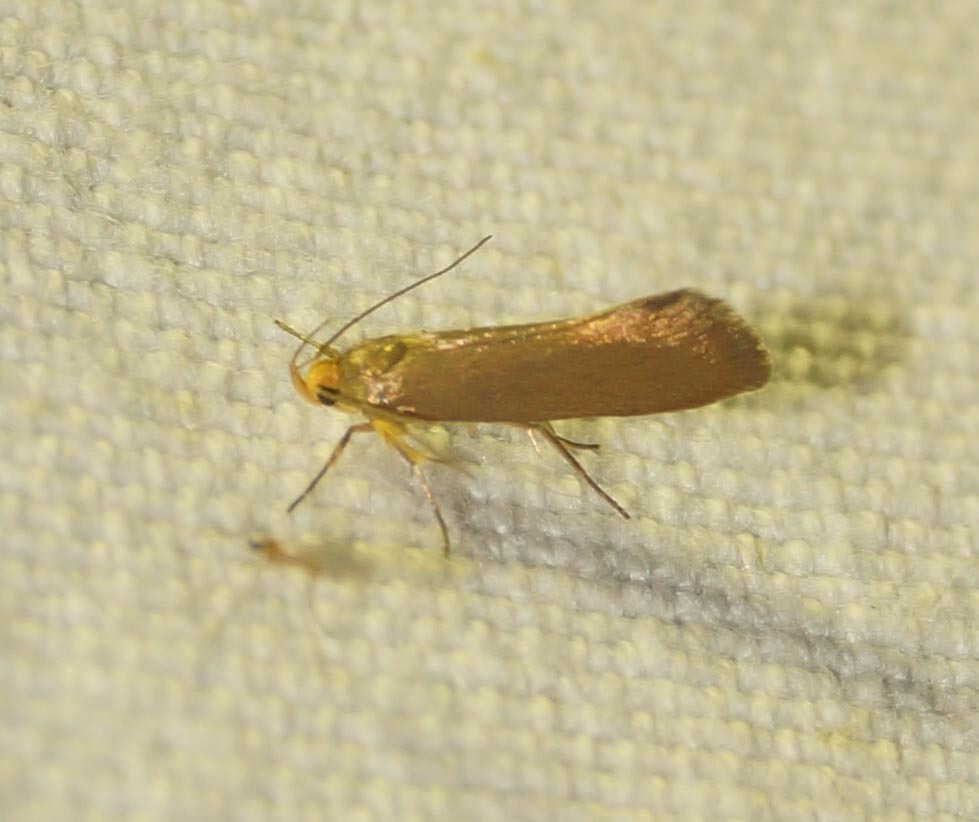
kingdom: Animalia
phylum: Arthropoda
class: Insecta
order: Lepidoptera
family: Oecophoridae
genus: Borkhausenia
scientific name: Borkhausenia Crassa unitella
